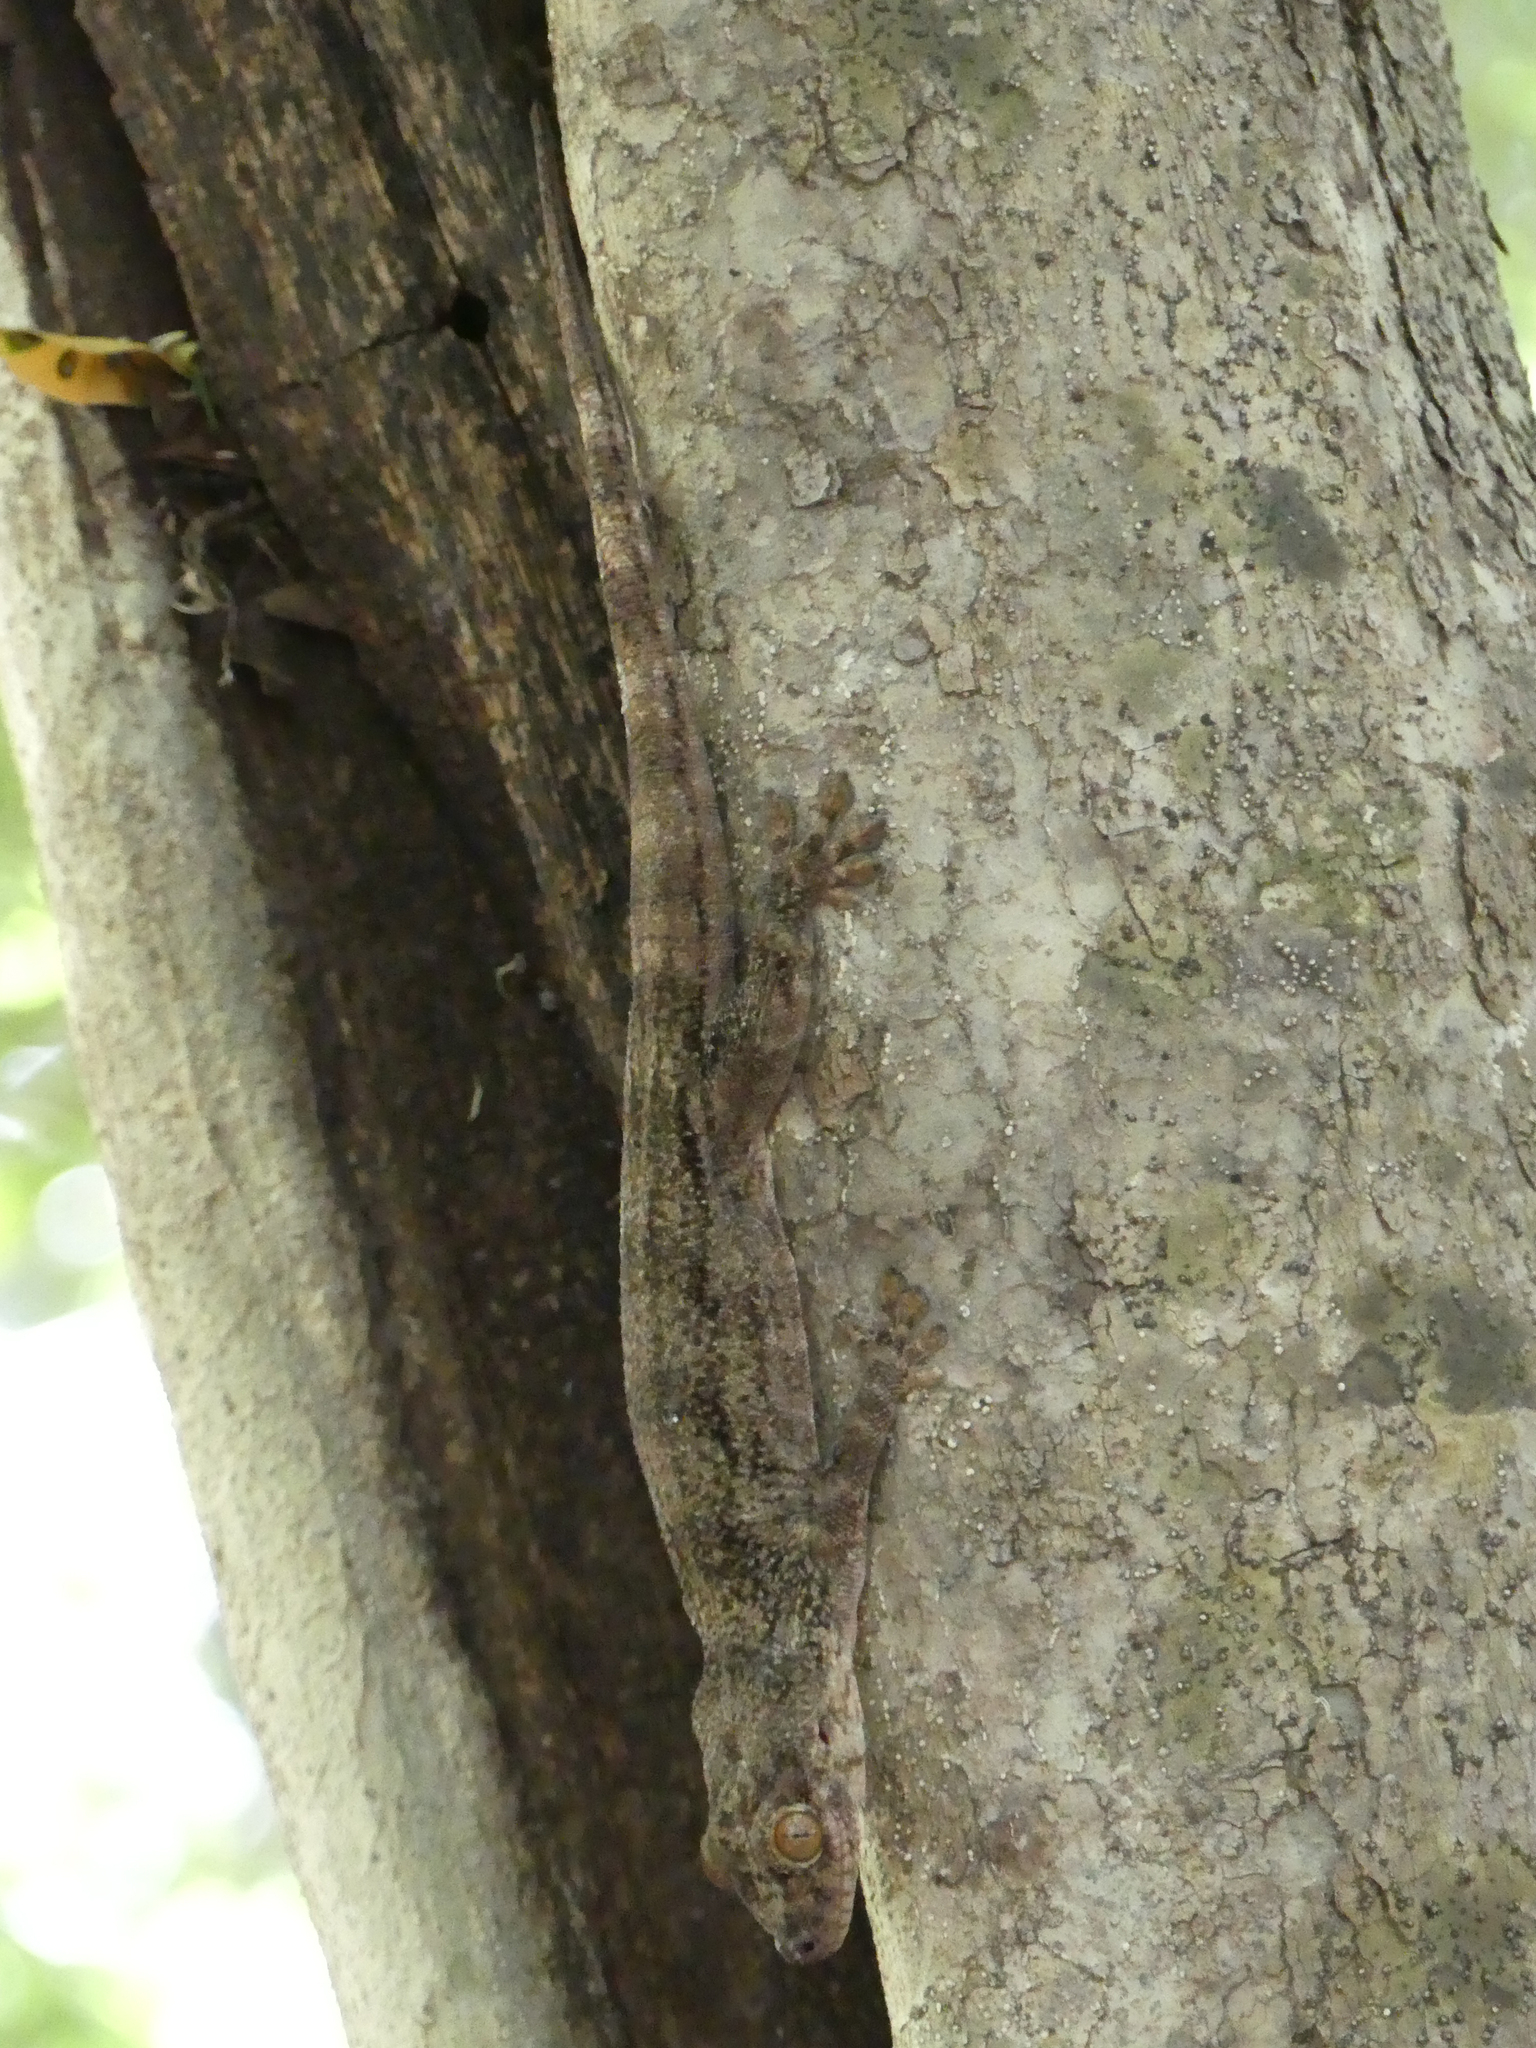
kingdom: Animalia
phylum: Chordata
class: Squamata
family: Gekkonidae
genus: Blaesodactylus
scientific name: Blaesodactylus boivini
